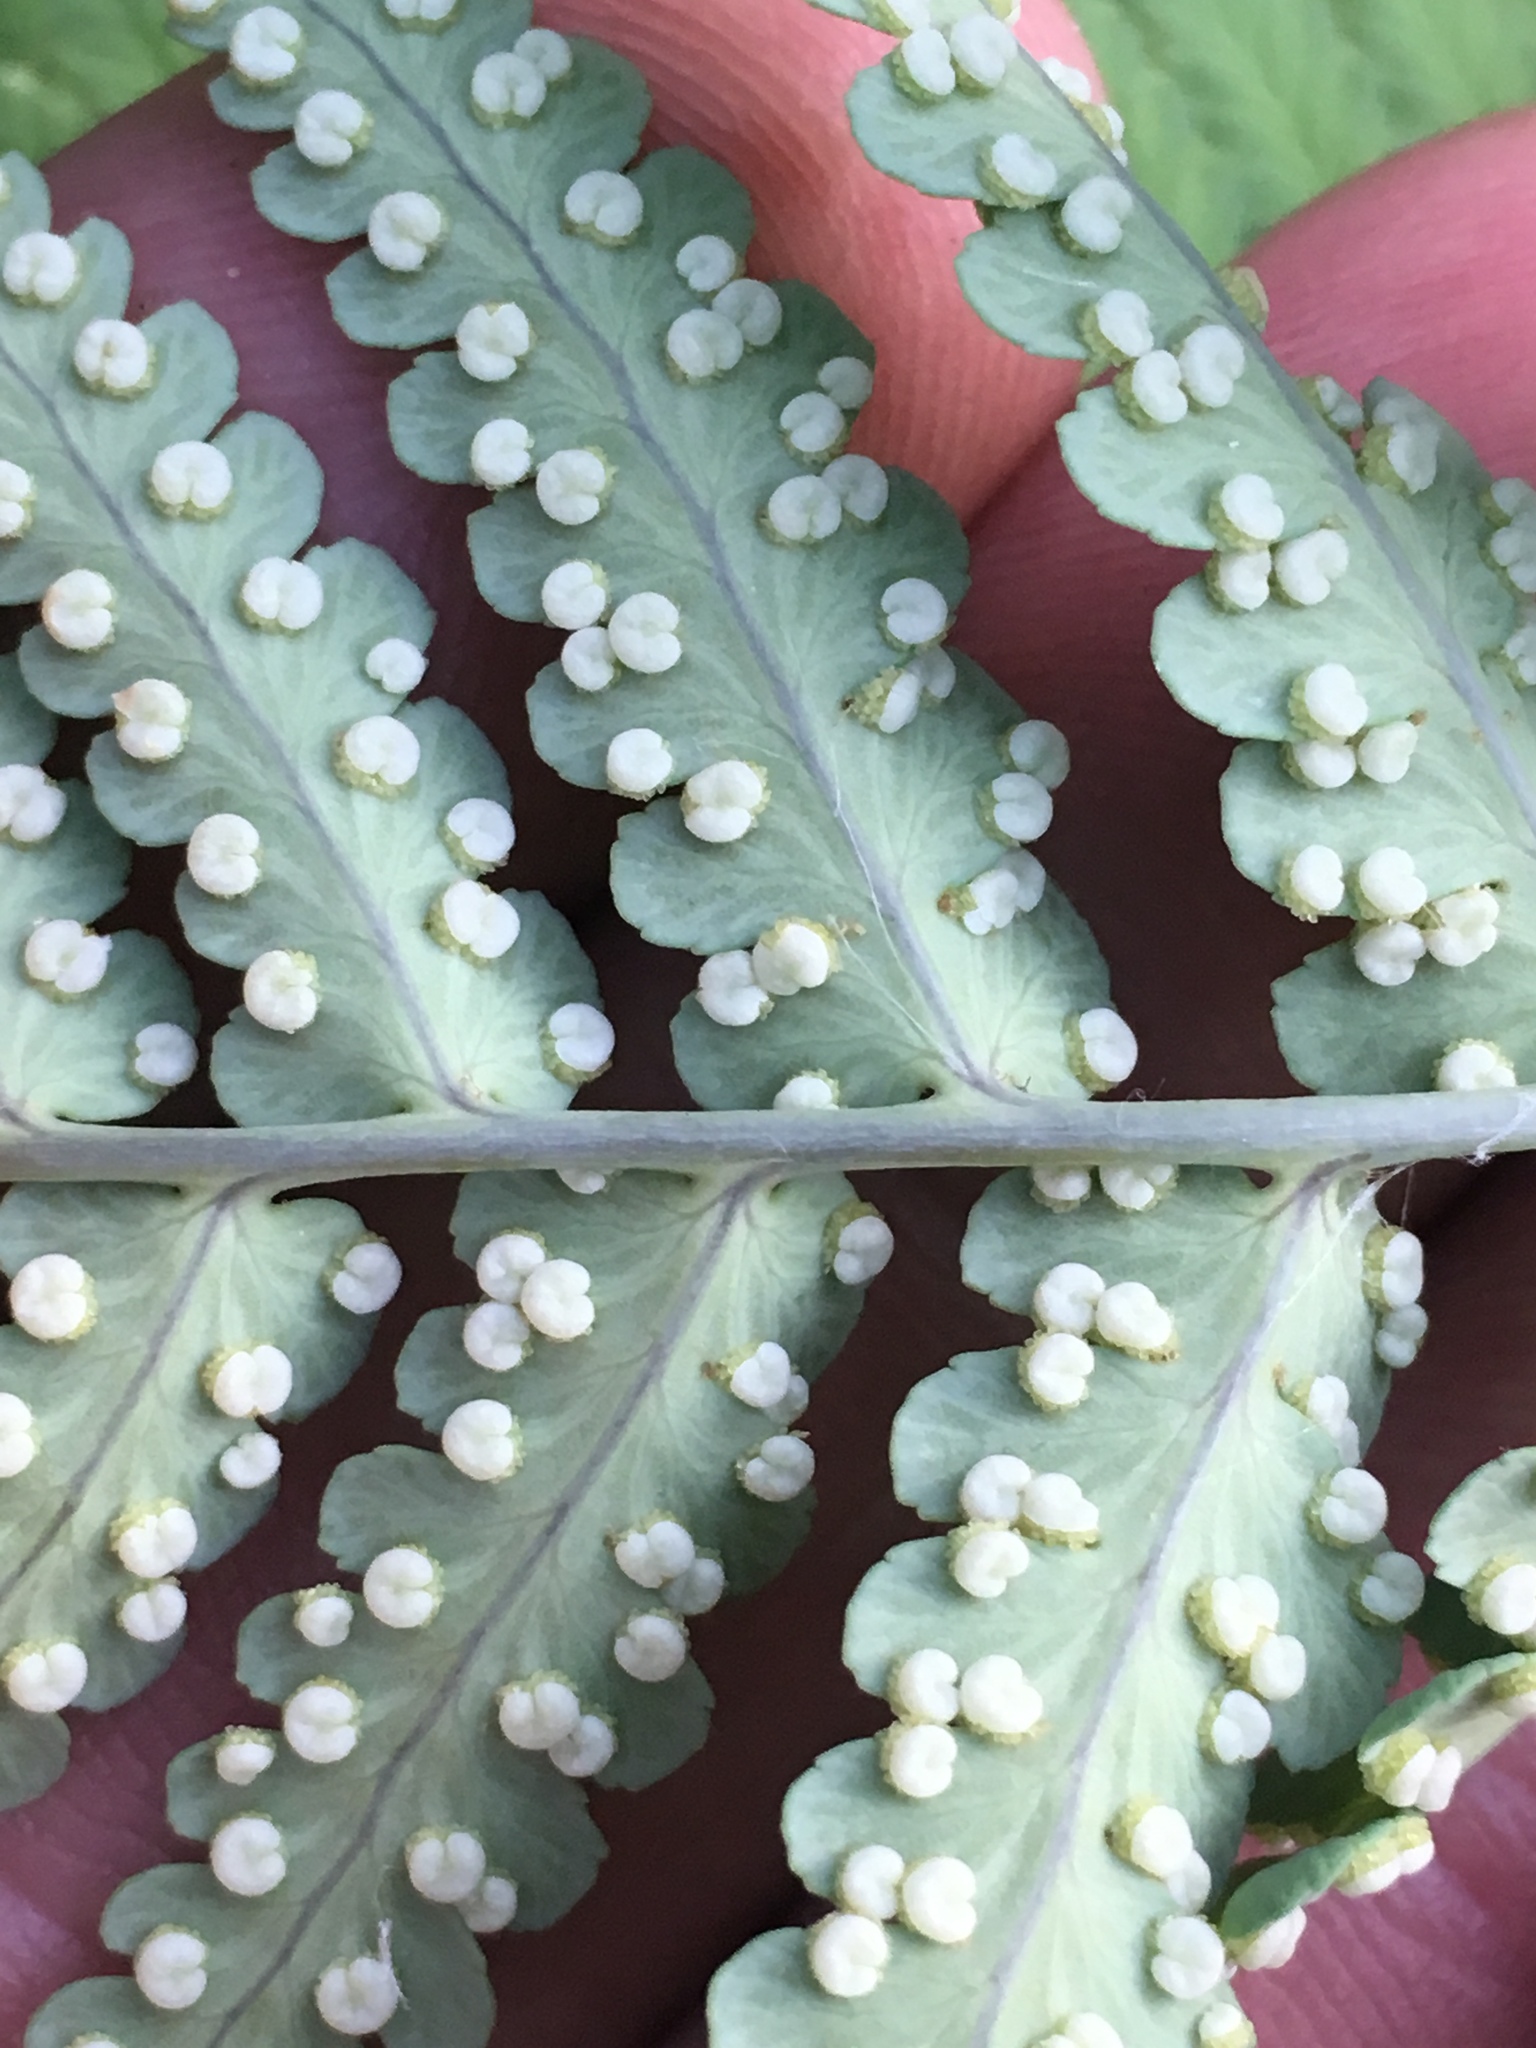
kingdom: Plantae
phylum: Tracheophyta
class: Polypodiopsida
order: Polypodiales
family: Dryopteridaceae
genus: Dryopteris
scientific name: Dryopteris marginalis
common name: Marginal wood fern
